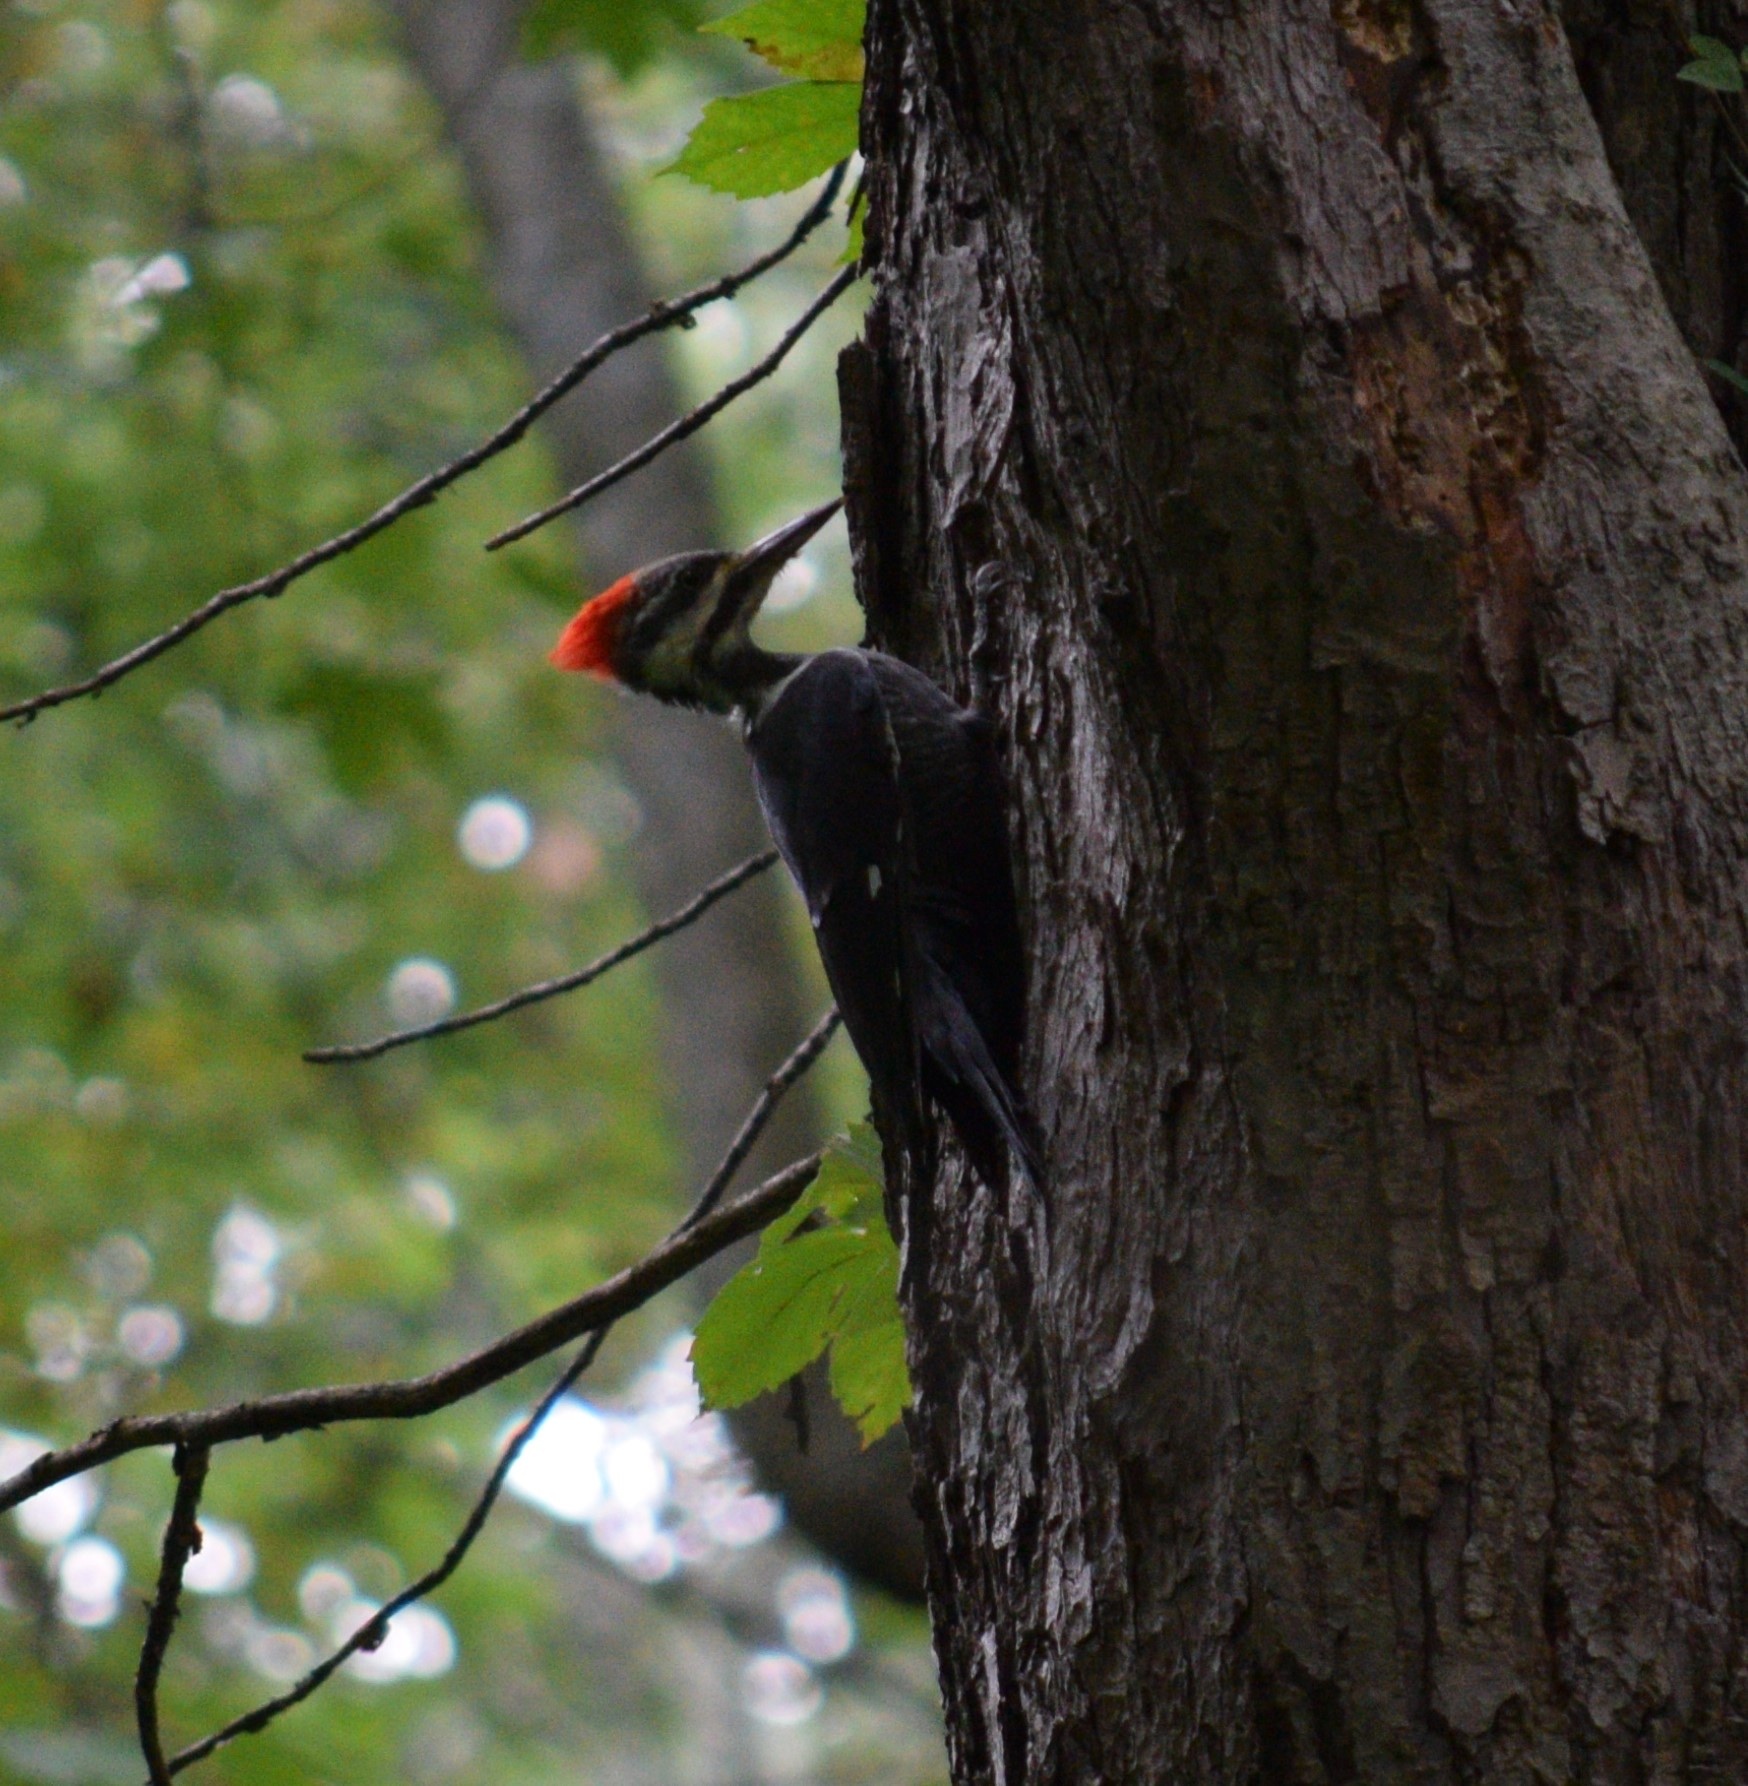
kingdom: Animalia
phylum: Chordata
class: Aves
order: Piciformes
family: Picidae
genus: Dryocopus
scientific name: Dryocopus pileatus
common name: Pileated woodpecker
